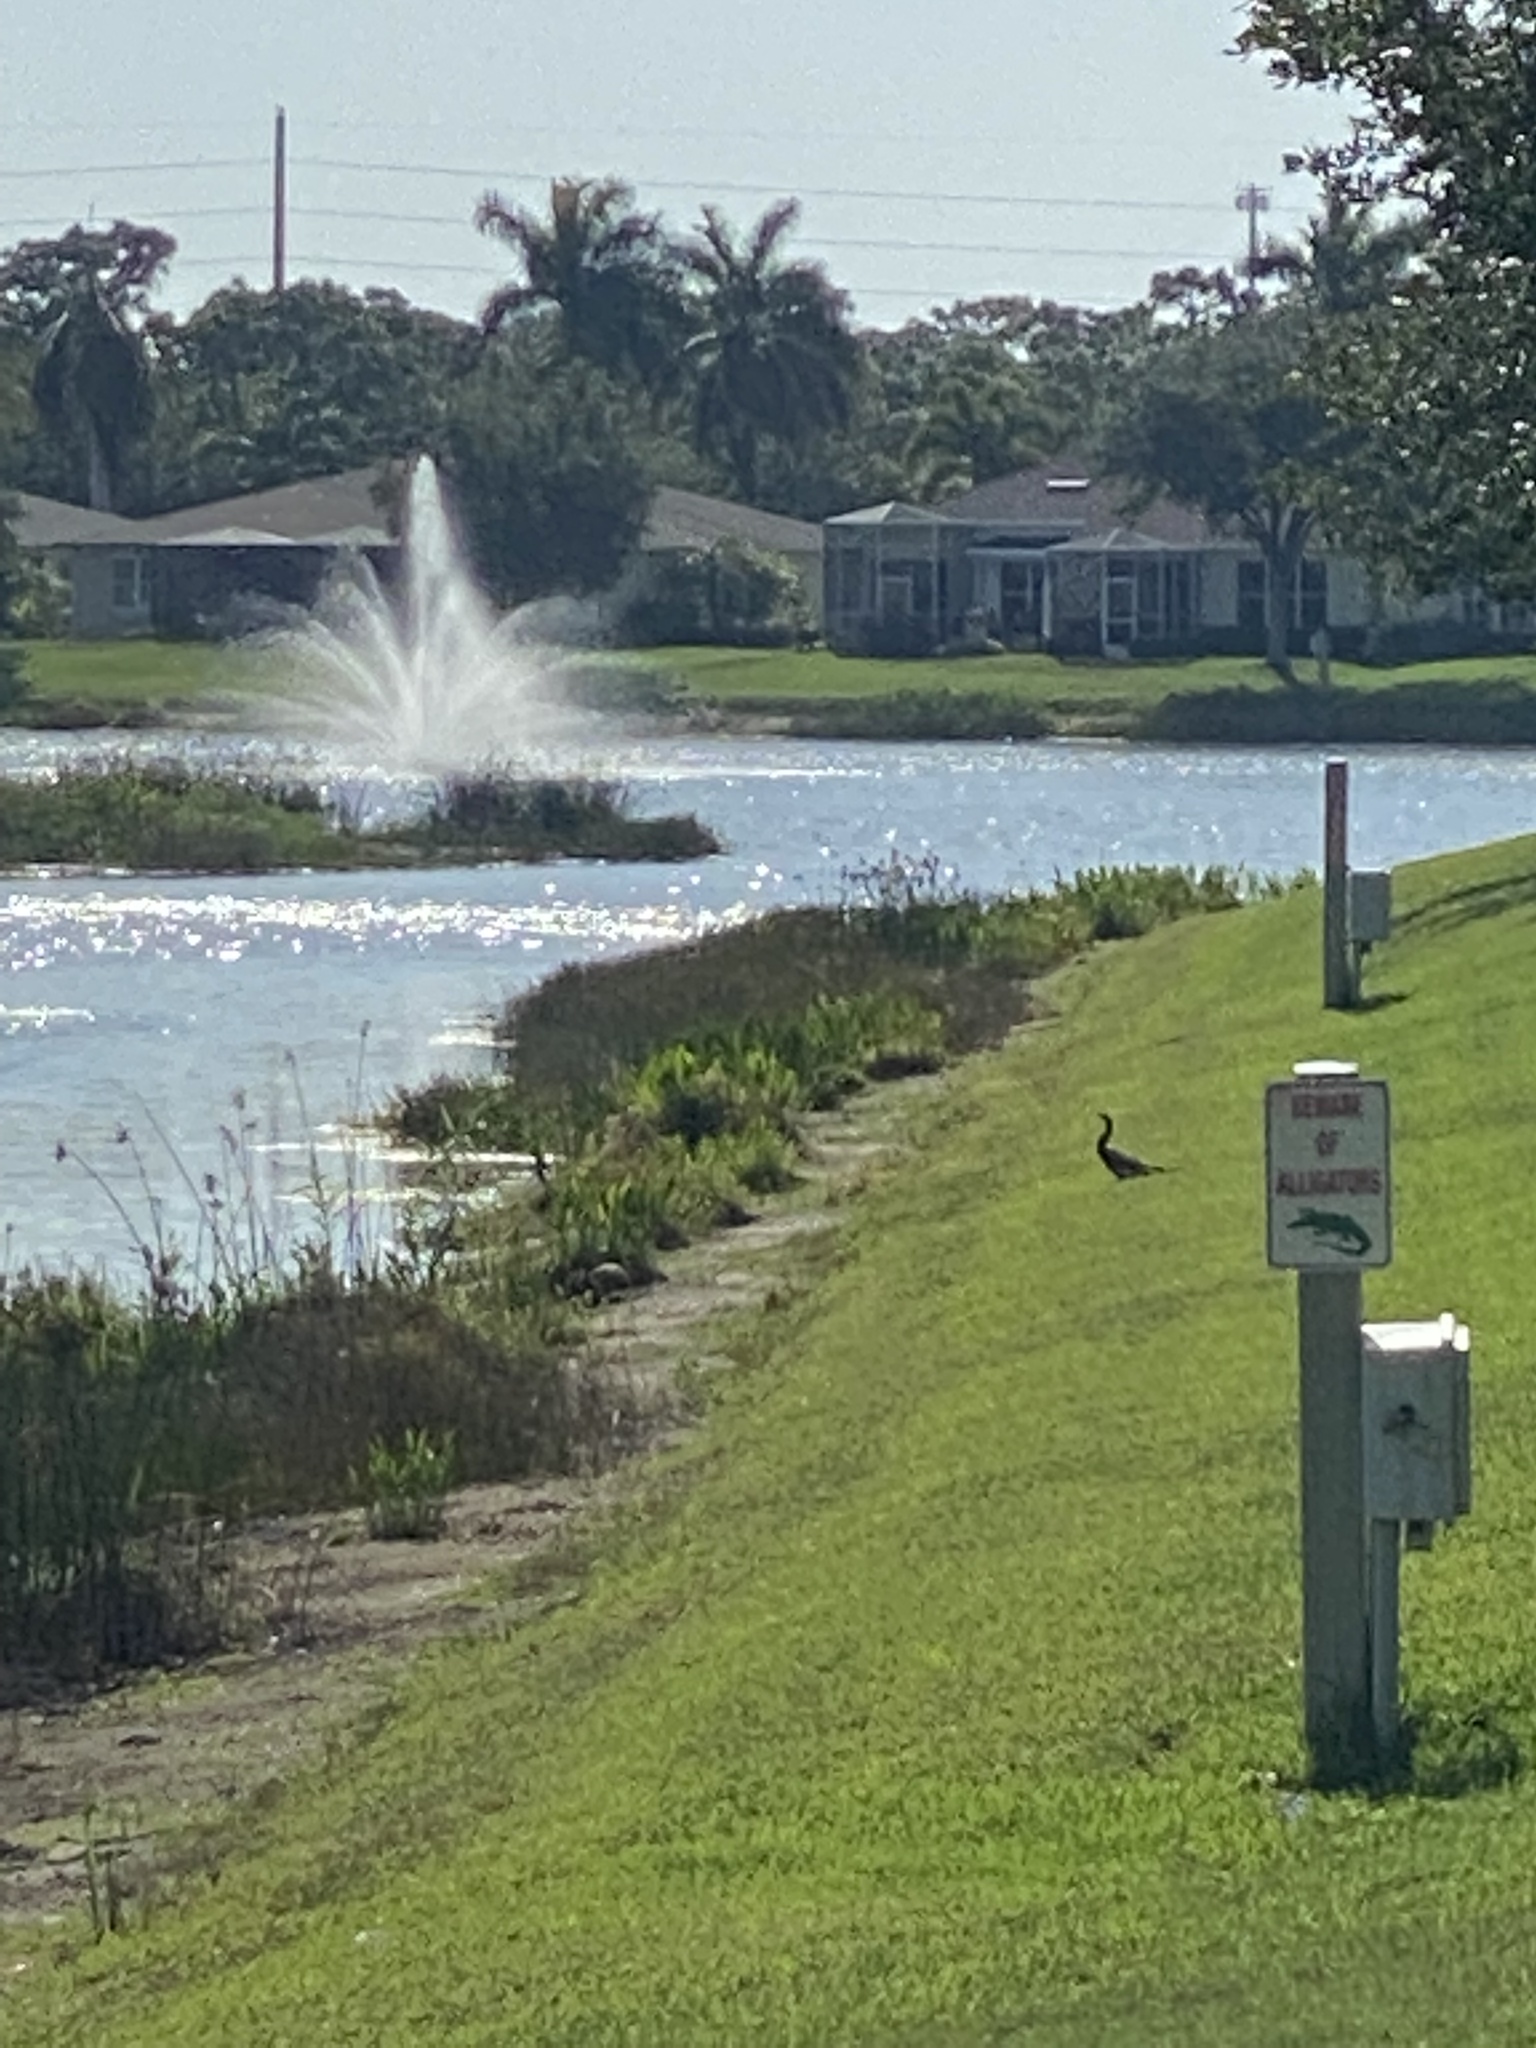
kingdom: Animalia
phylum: Chordata
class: Aves
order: Suliformes
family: Anhingidae
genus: Anhinga
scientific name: Anhinga anhinga
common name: Anhinga
